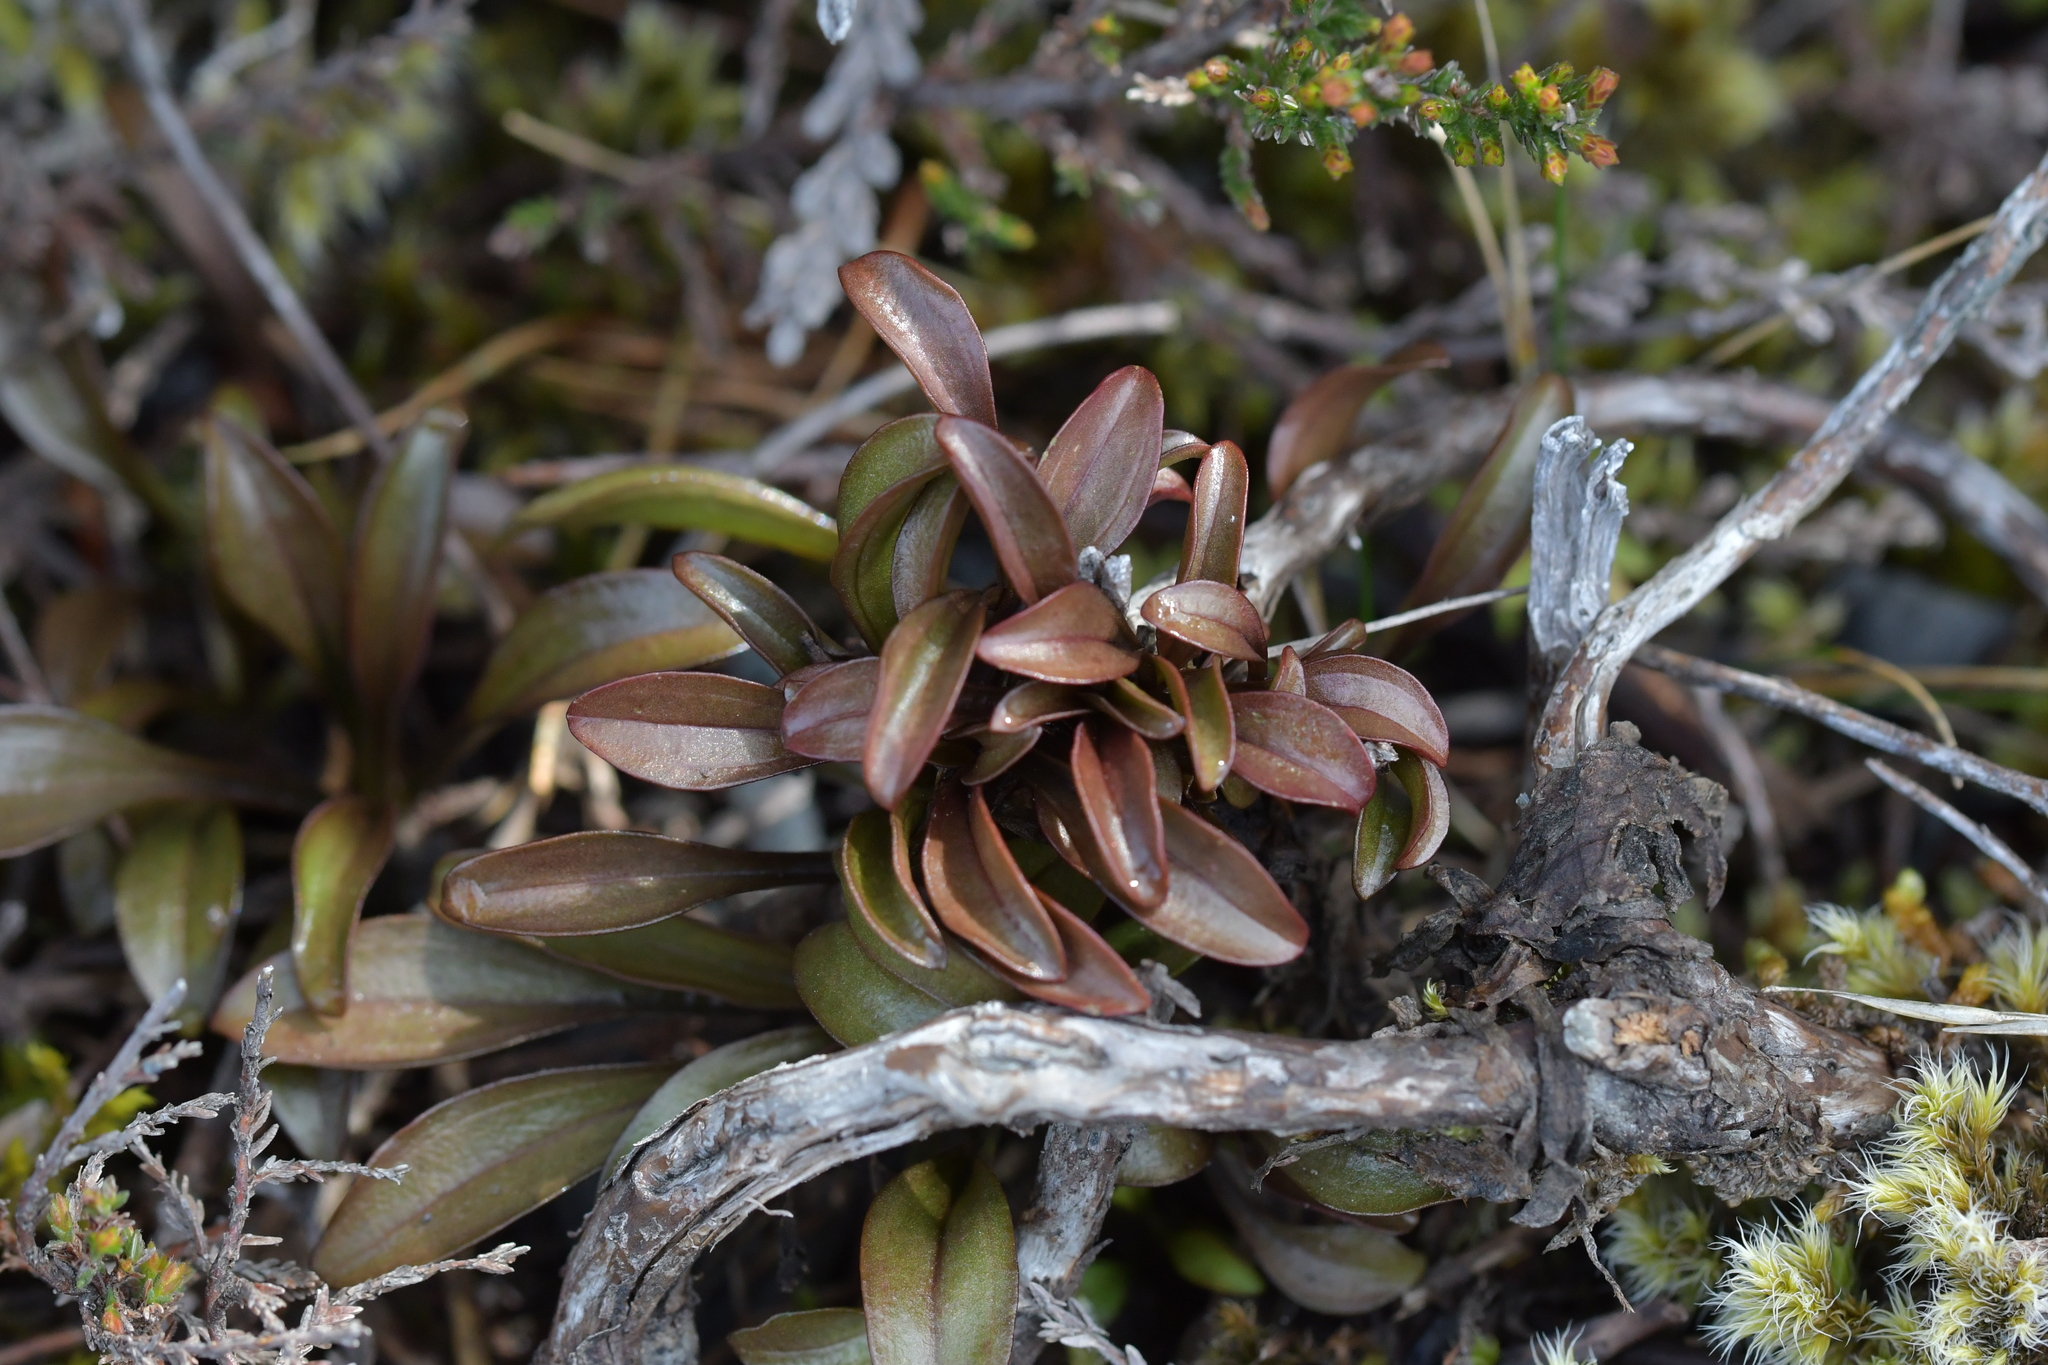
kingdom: Plantae
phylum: Tracheophyta
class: Magnoliopsida
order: Gentianales
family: Gentianaceae
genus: Gentianella
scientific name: Gentianella bellidifolia
